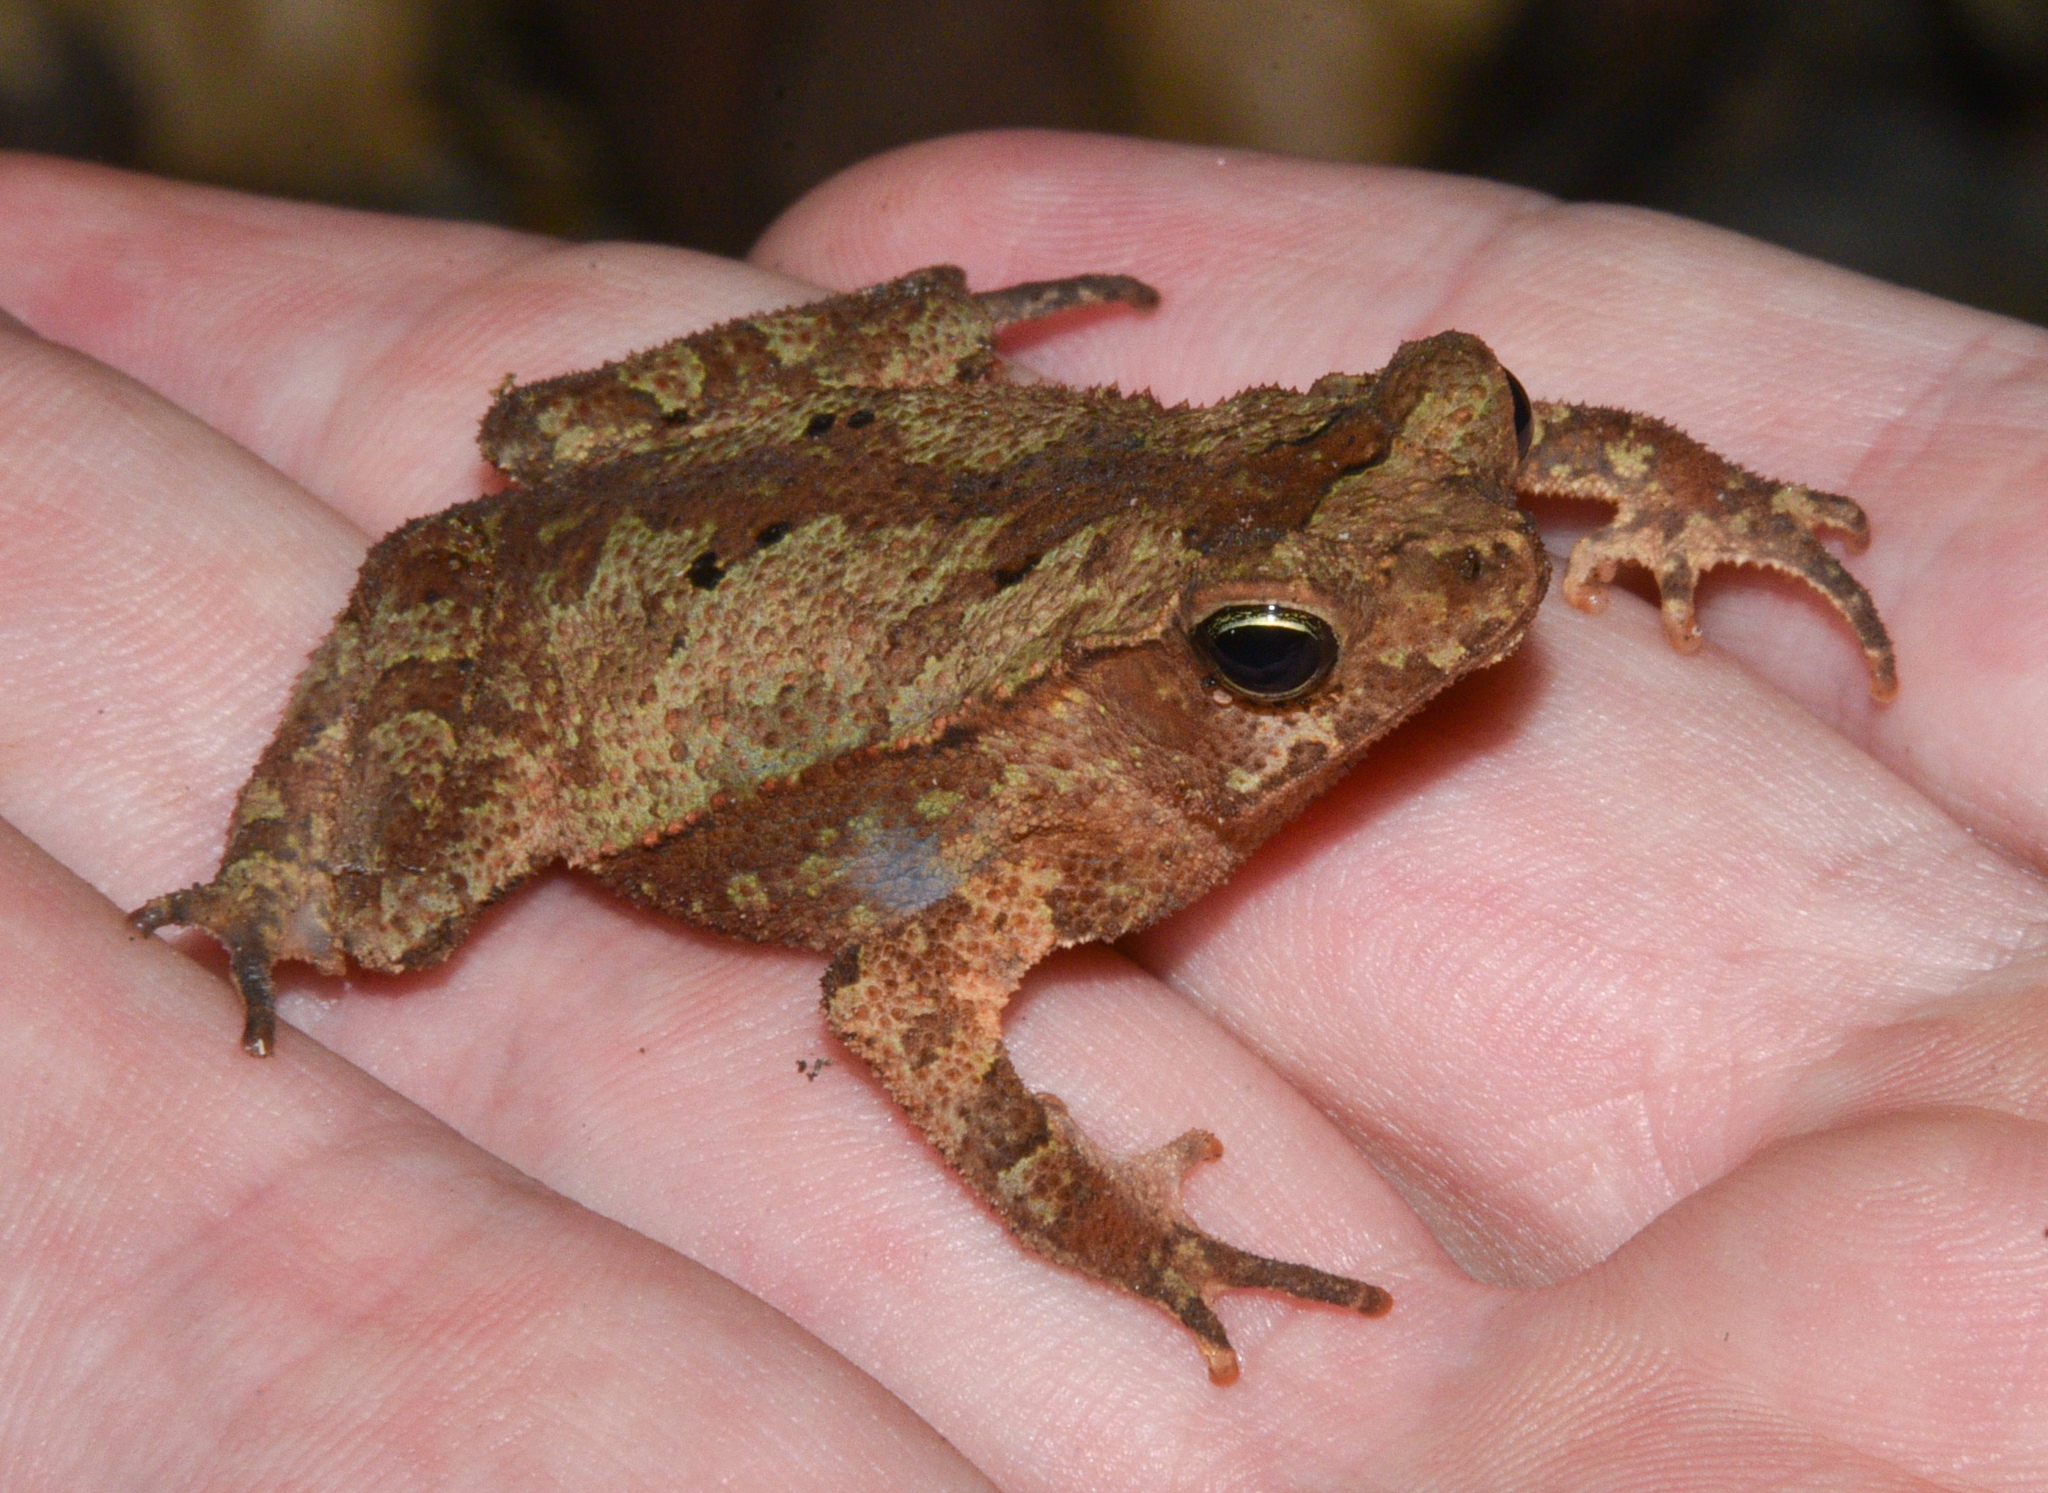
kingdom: Animalia
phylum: Chordata
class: Amphibia
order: Anura
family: Bufonidae
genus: Rhinella
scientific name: Rhinella alata
